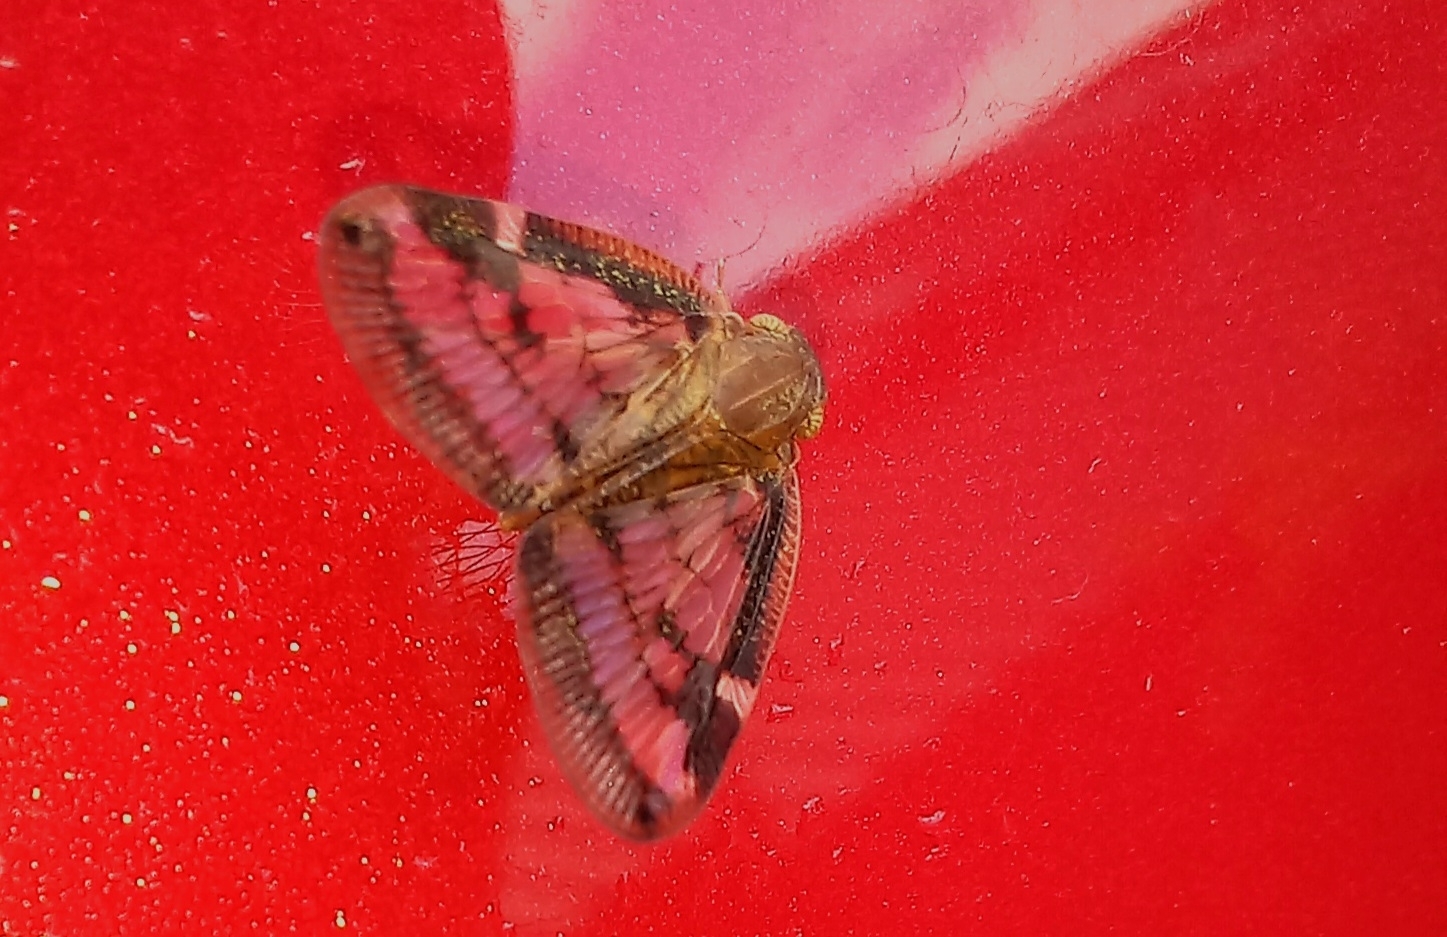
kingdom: Animalia
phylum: Arthropoda
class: Insecta
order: Hemiptera
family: Ricaniidae
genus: Scolypopa
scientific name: Scolypopa australis
